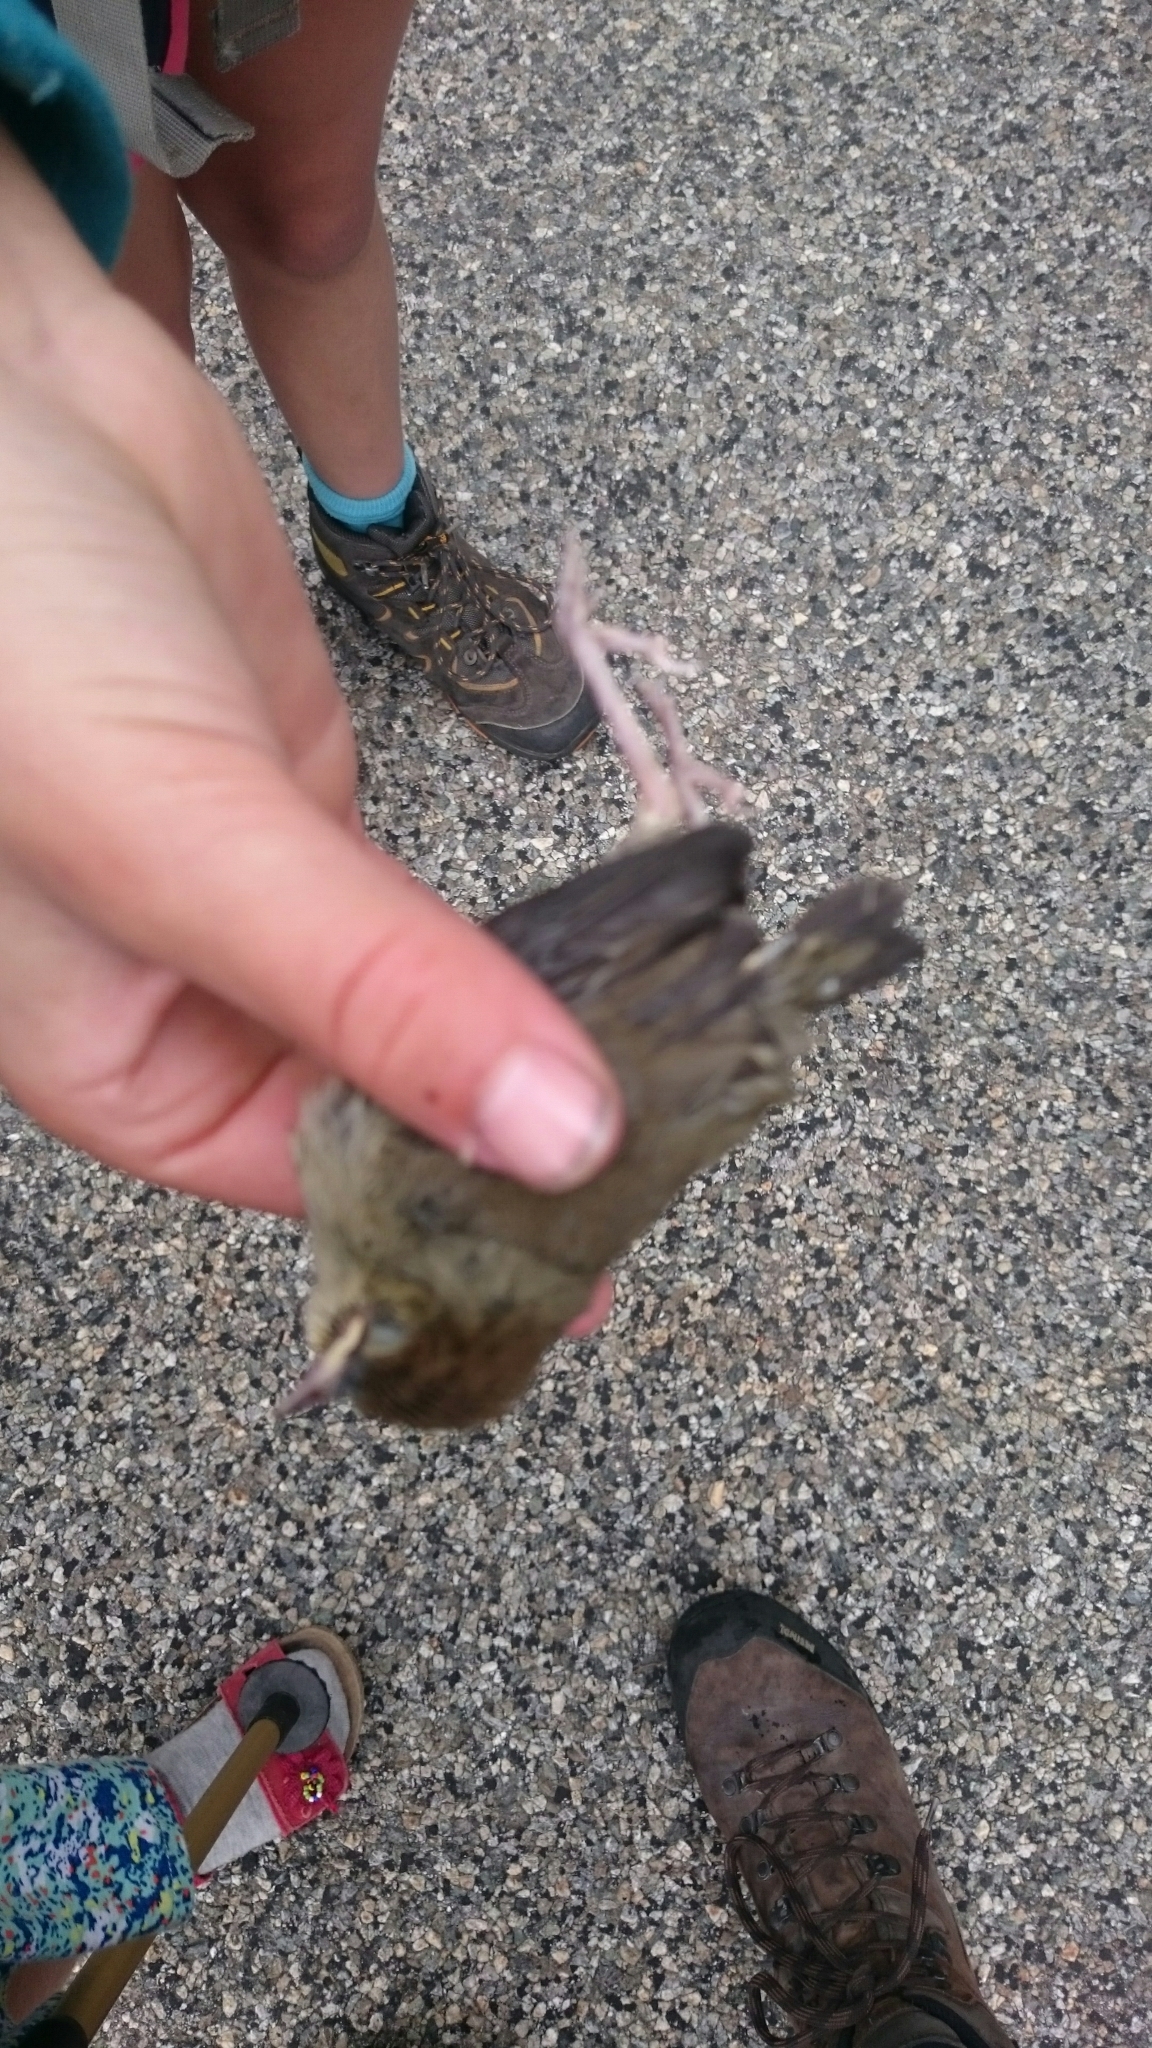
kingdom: Animalia
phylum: Chordata
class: Aves
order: Passeriformes
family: Sylviidae
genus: Sylvia
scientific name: Sylvia atricapilla
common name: Eurasian blackcap
